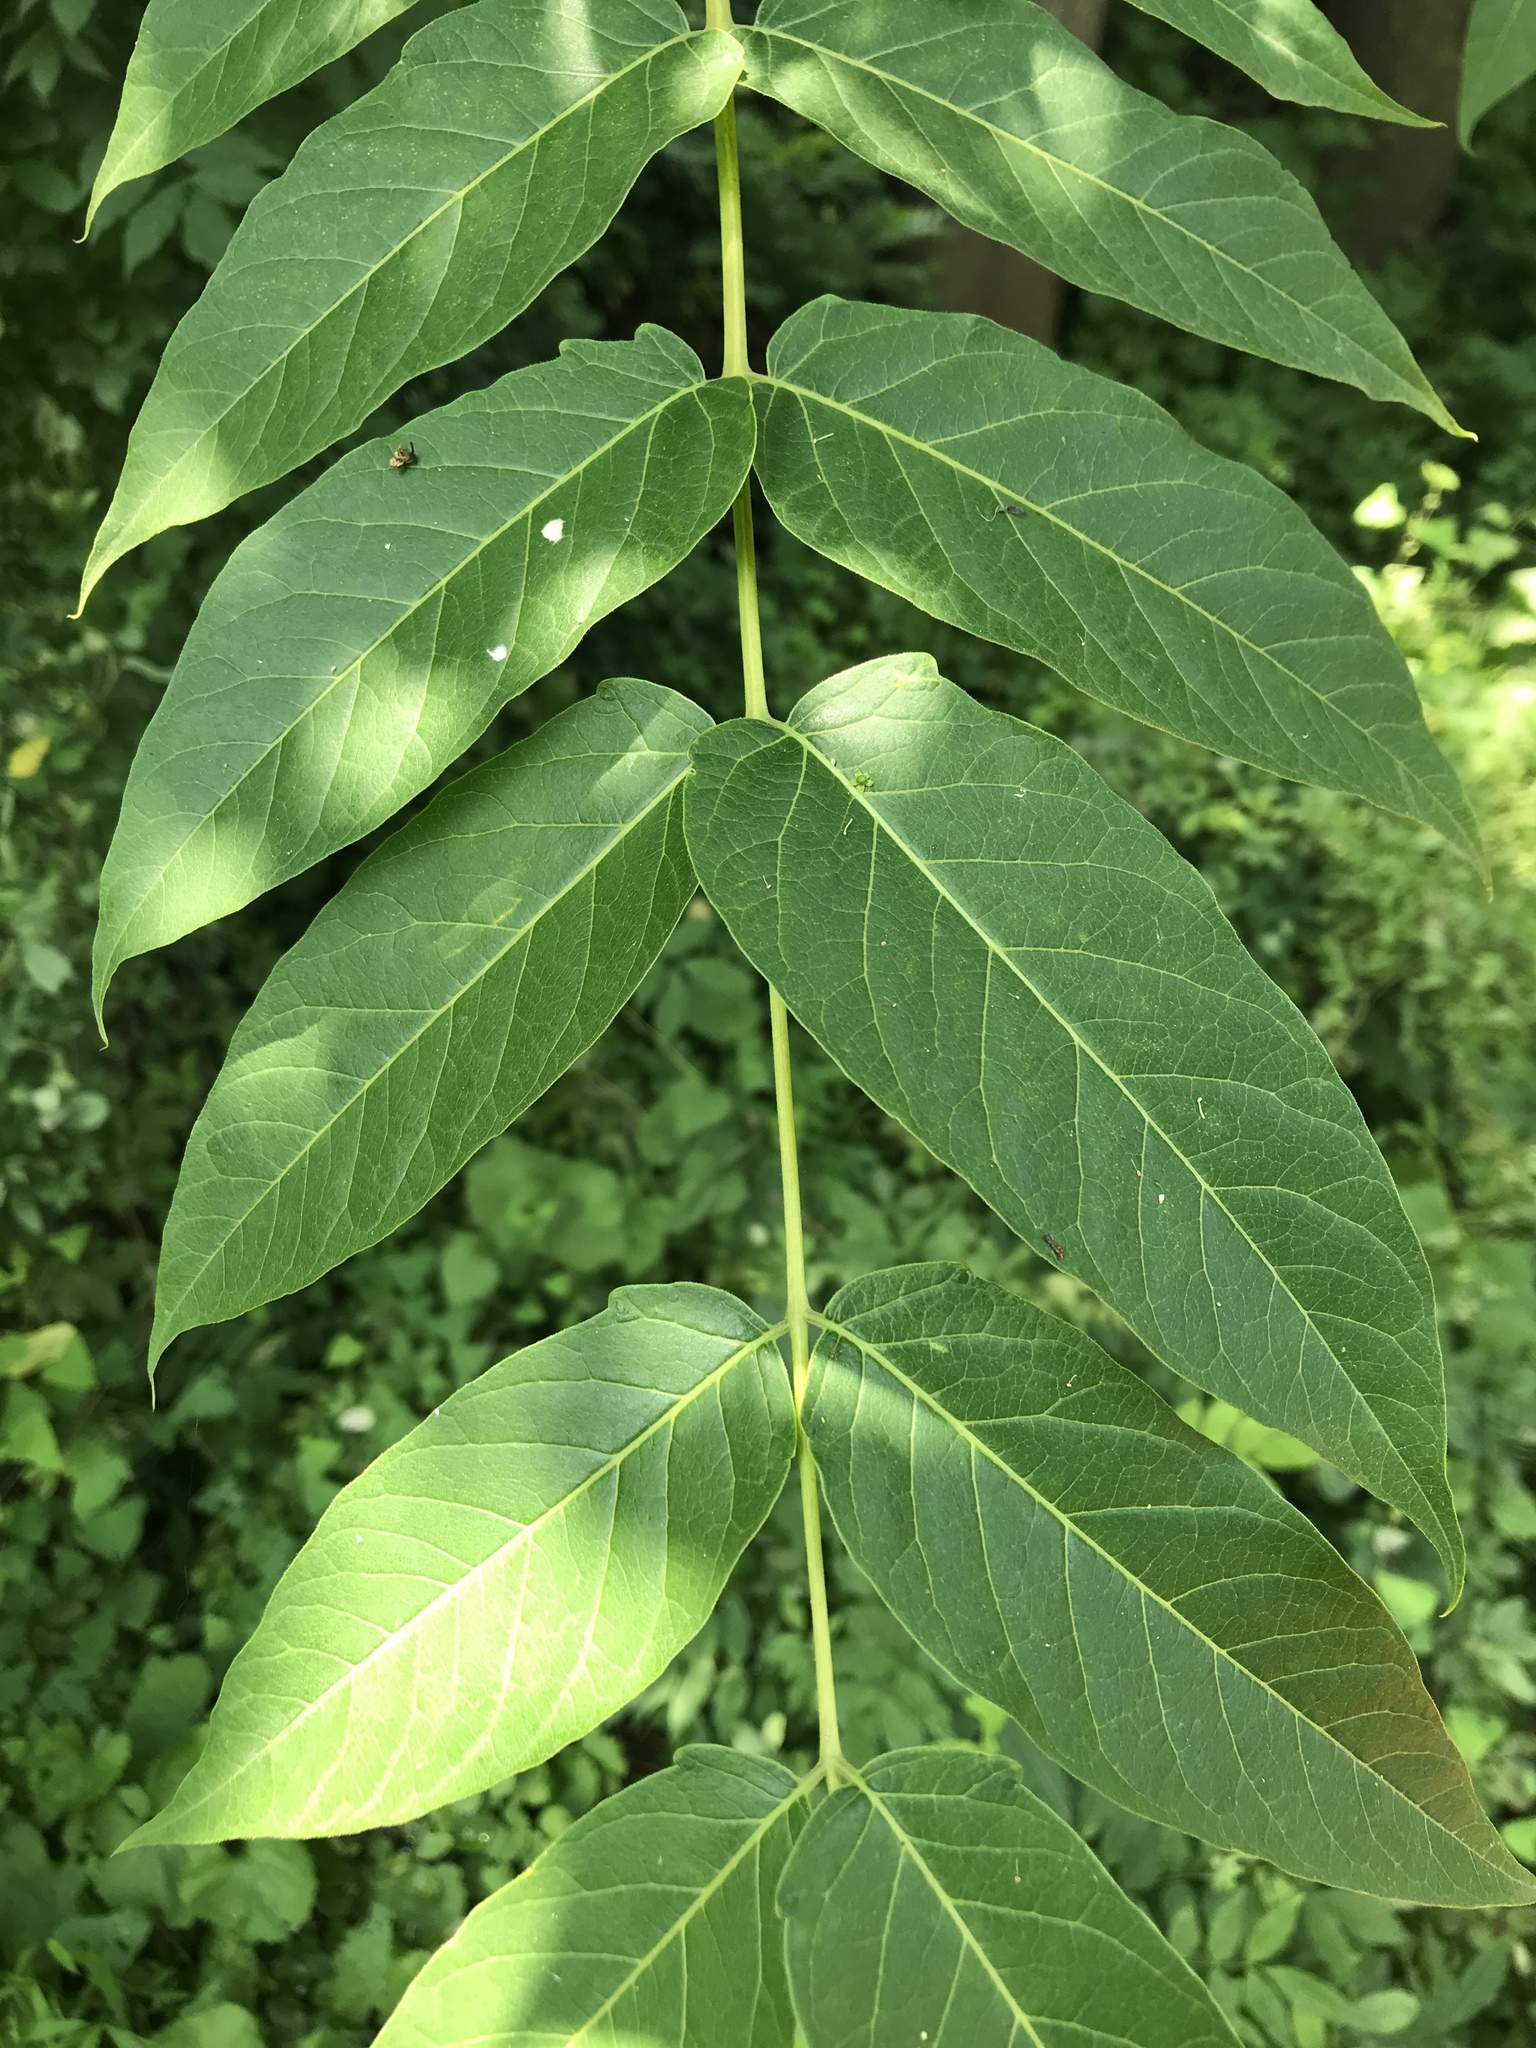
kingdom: Plantae
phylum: Tracheophyta
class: Magnoliopsida
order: Sapindales
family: Simaroubaceae
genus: Ailanthus
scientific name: Ailanthus altissima
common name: Tree-of-heaven
